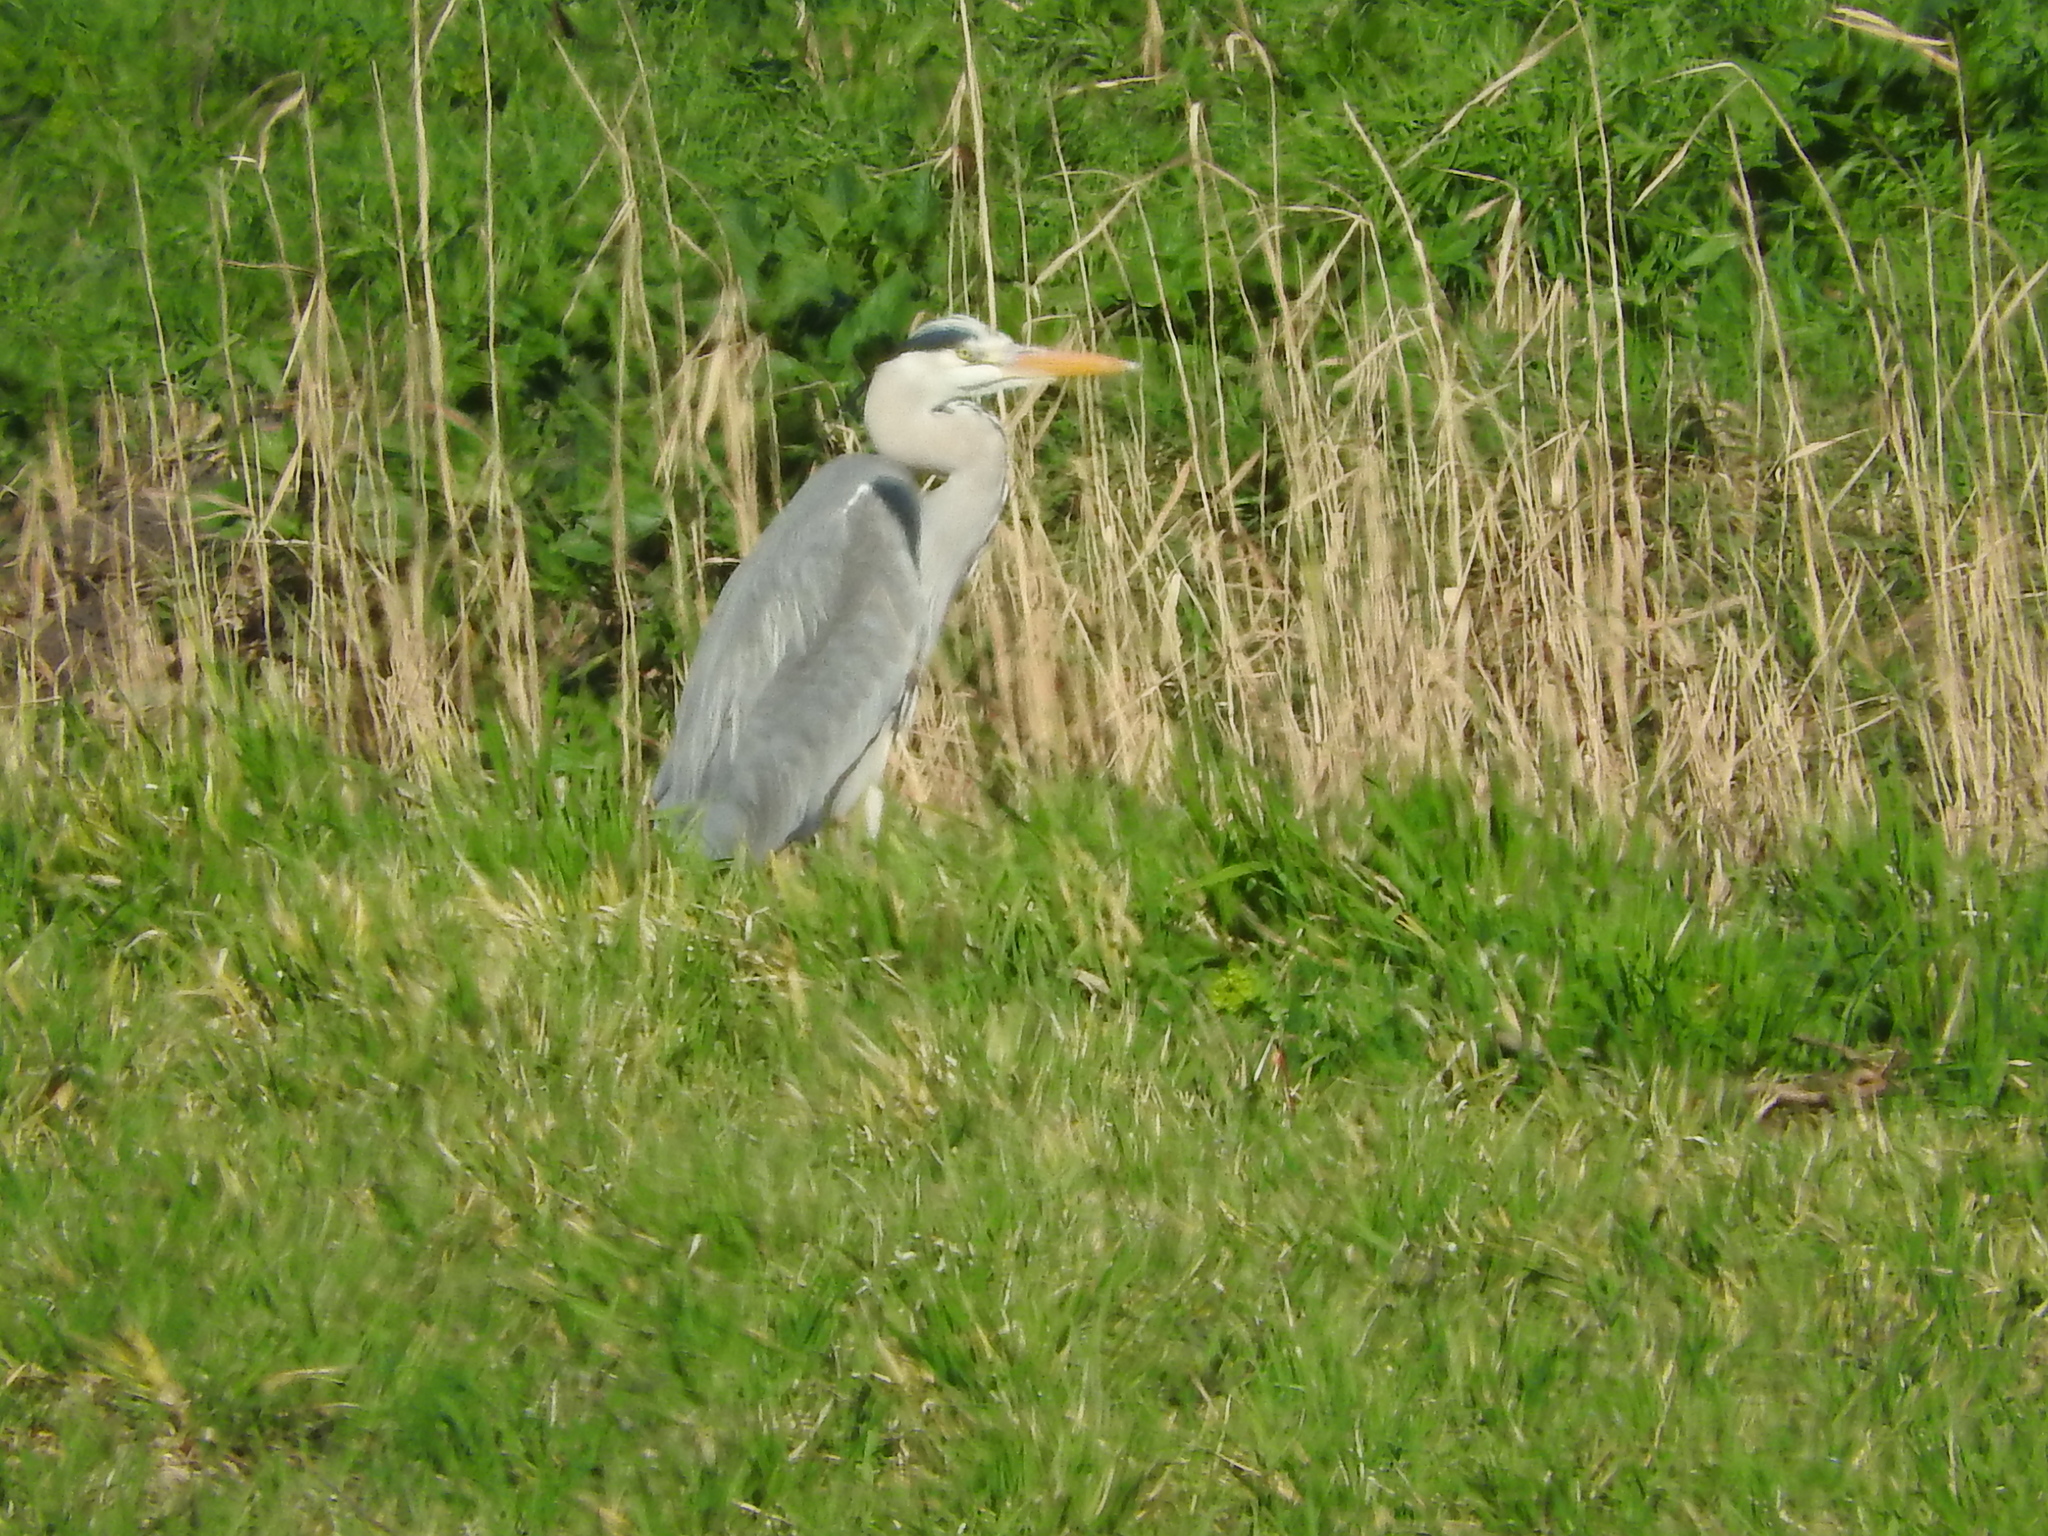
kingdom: Animalia
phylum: Chordata
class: Aves
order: Pelecaniformes
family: Ardeidae
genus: Ardea
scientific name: Ardea cinerea
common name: Grey heron
